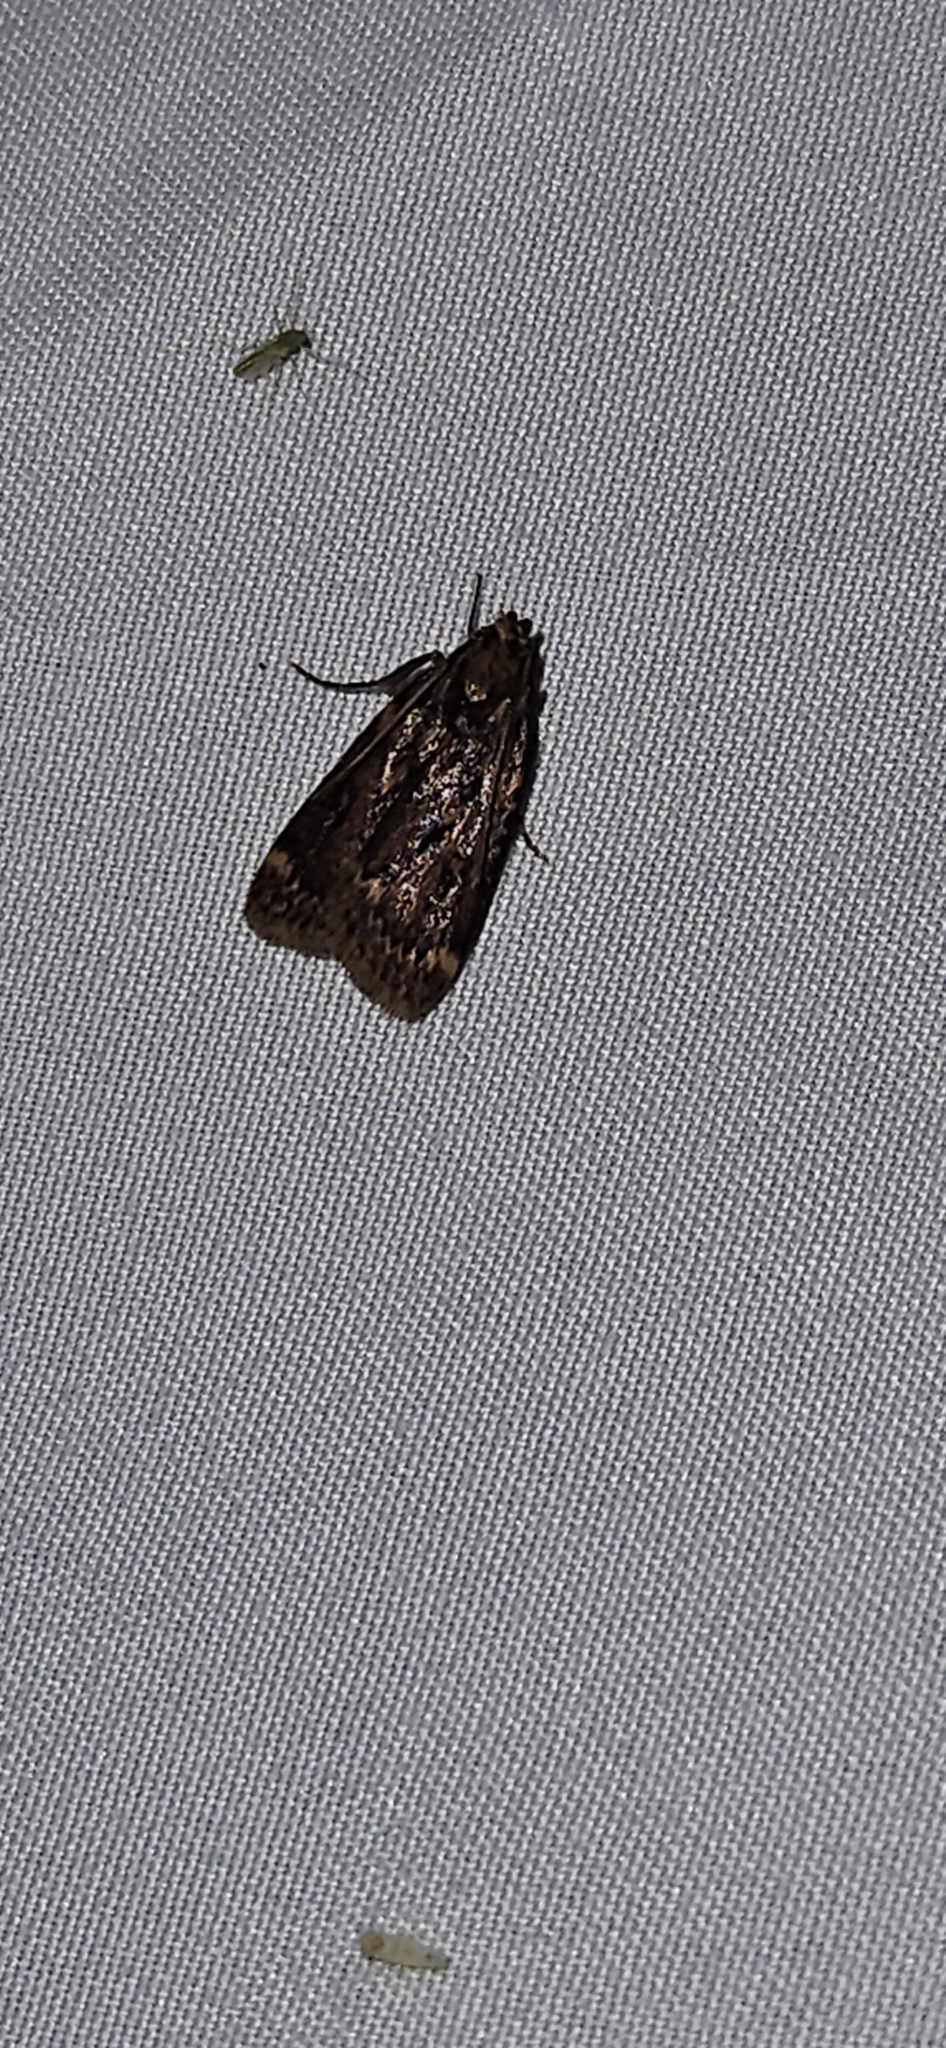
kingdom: Animalia
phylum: Arthropoda
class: Insecta
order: Lepidoptera
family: Pyralidae
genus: Aglossa
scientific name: Aglossa cuprina
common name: Grease moth
